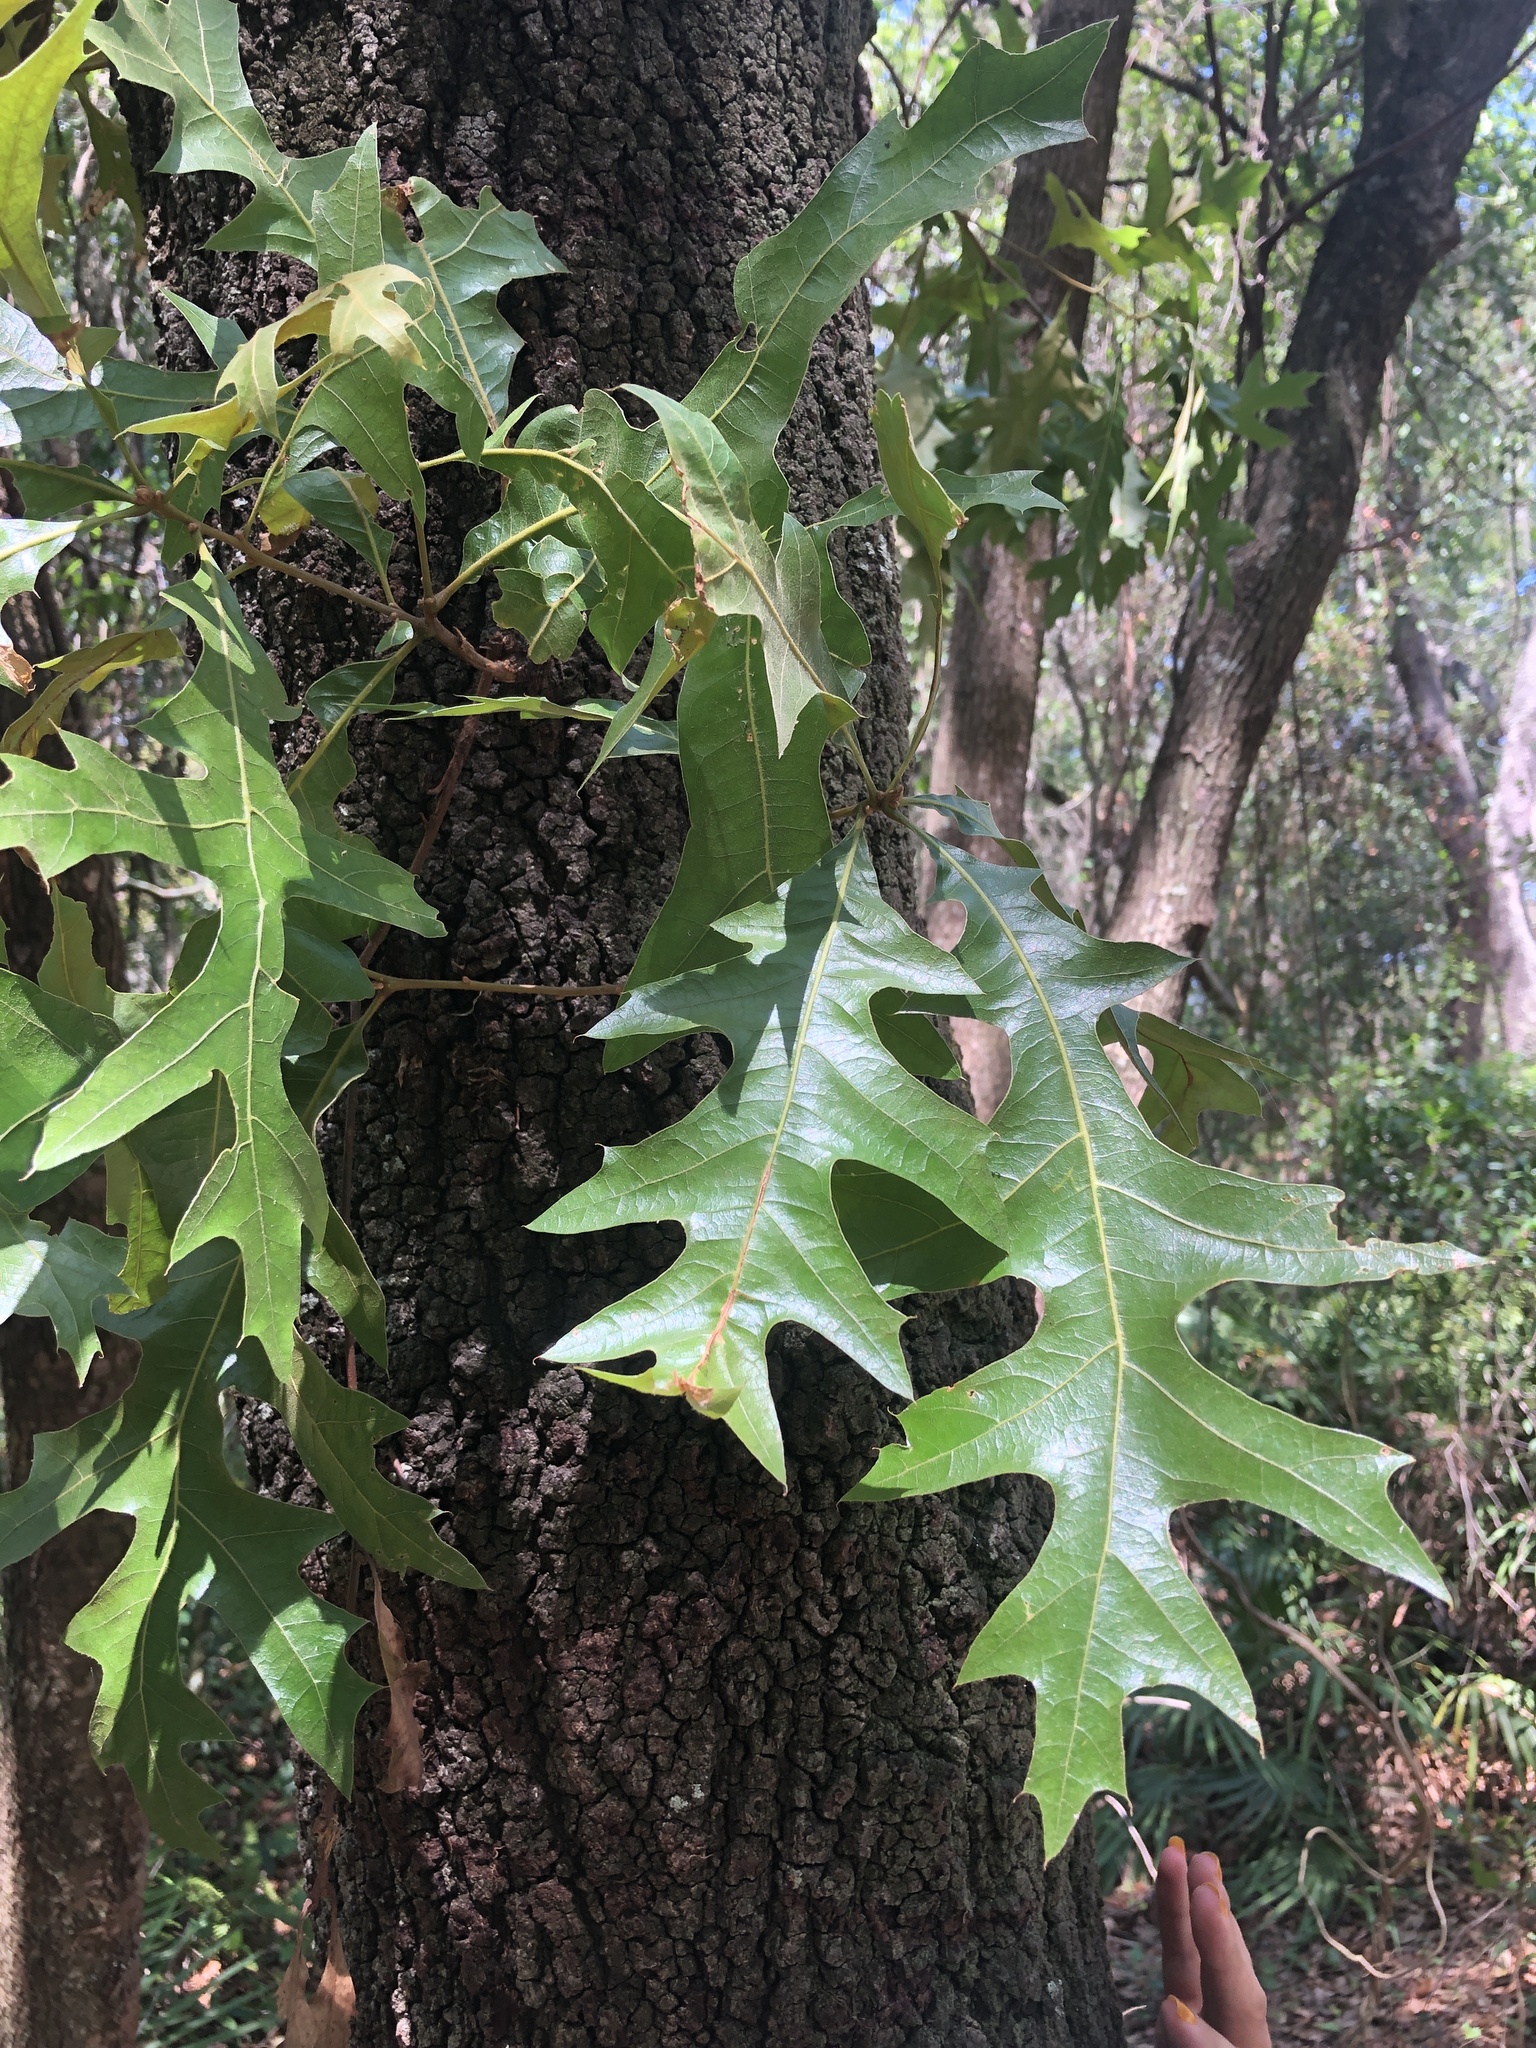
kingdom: Plantae
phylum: Tracheophyta
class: Magnoliopsida
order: Fagales
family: Fagaceae
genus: Quercus
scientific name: Quercus laevis
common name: Turkey oak
